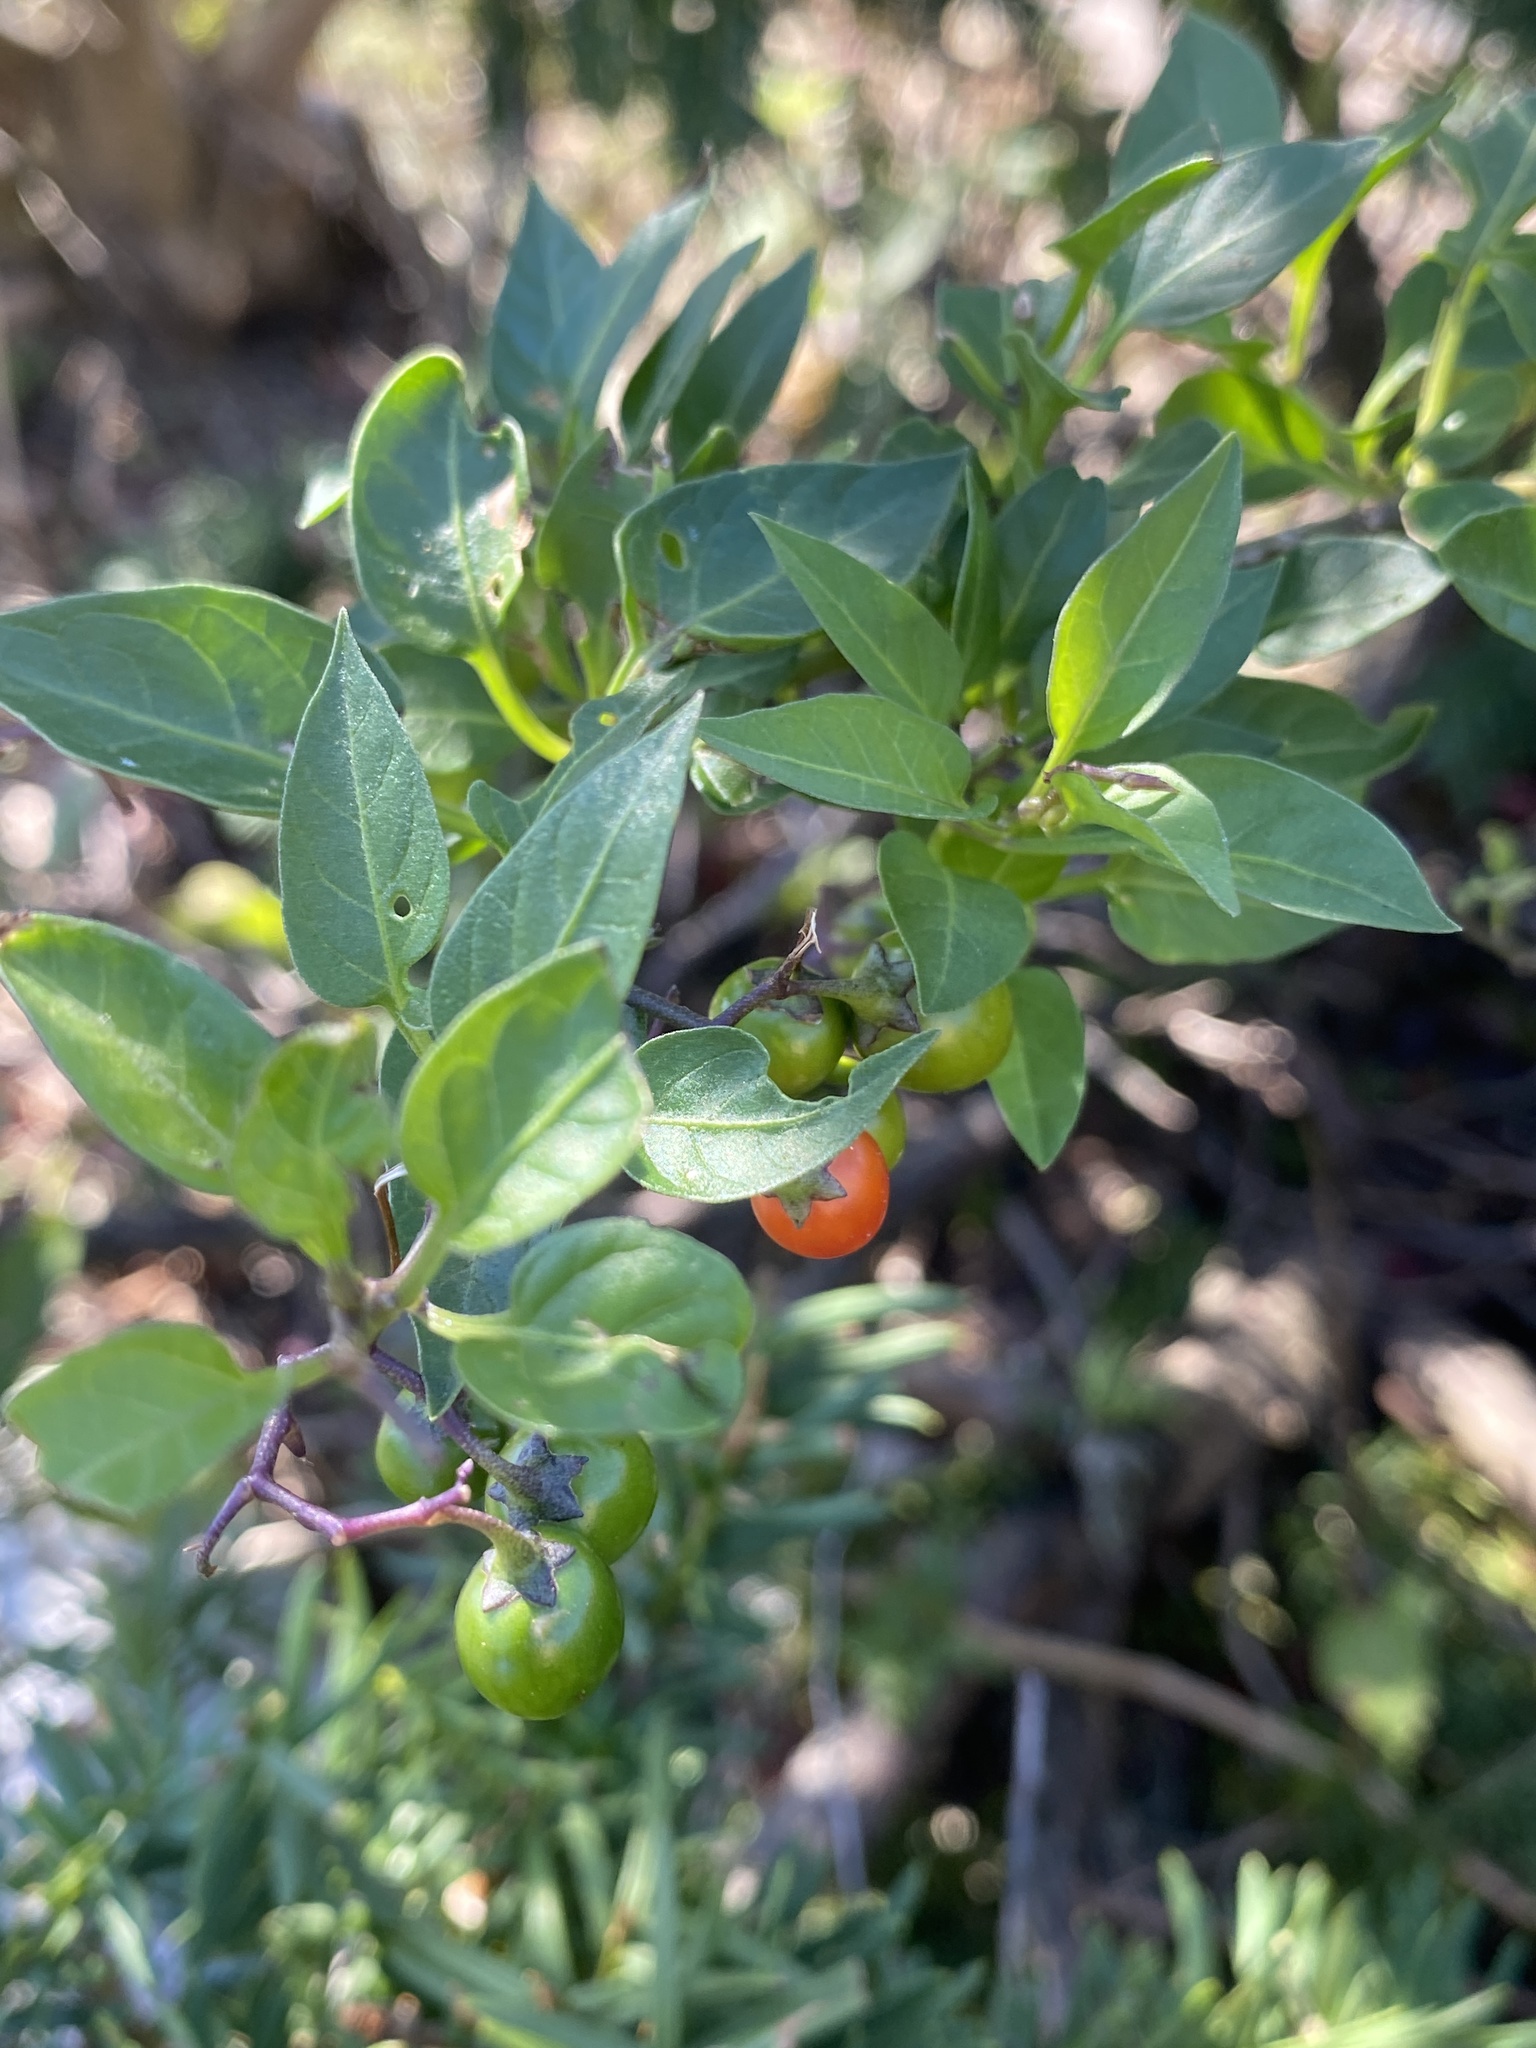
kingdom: Plantae
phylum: Tracheophyta
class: Magnoliopsida
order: Solanales
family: Solanaceae
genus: Solanum
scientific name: Solanum dulcamara
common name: Climbing nightshade
